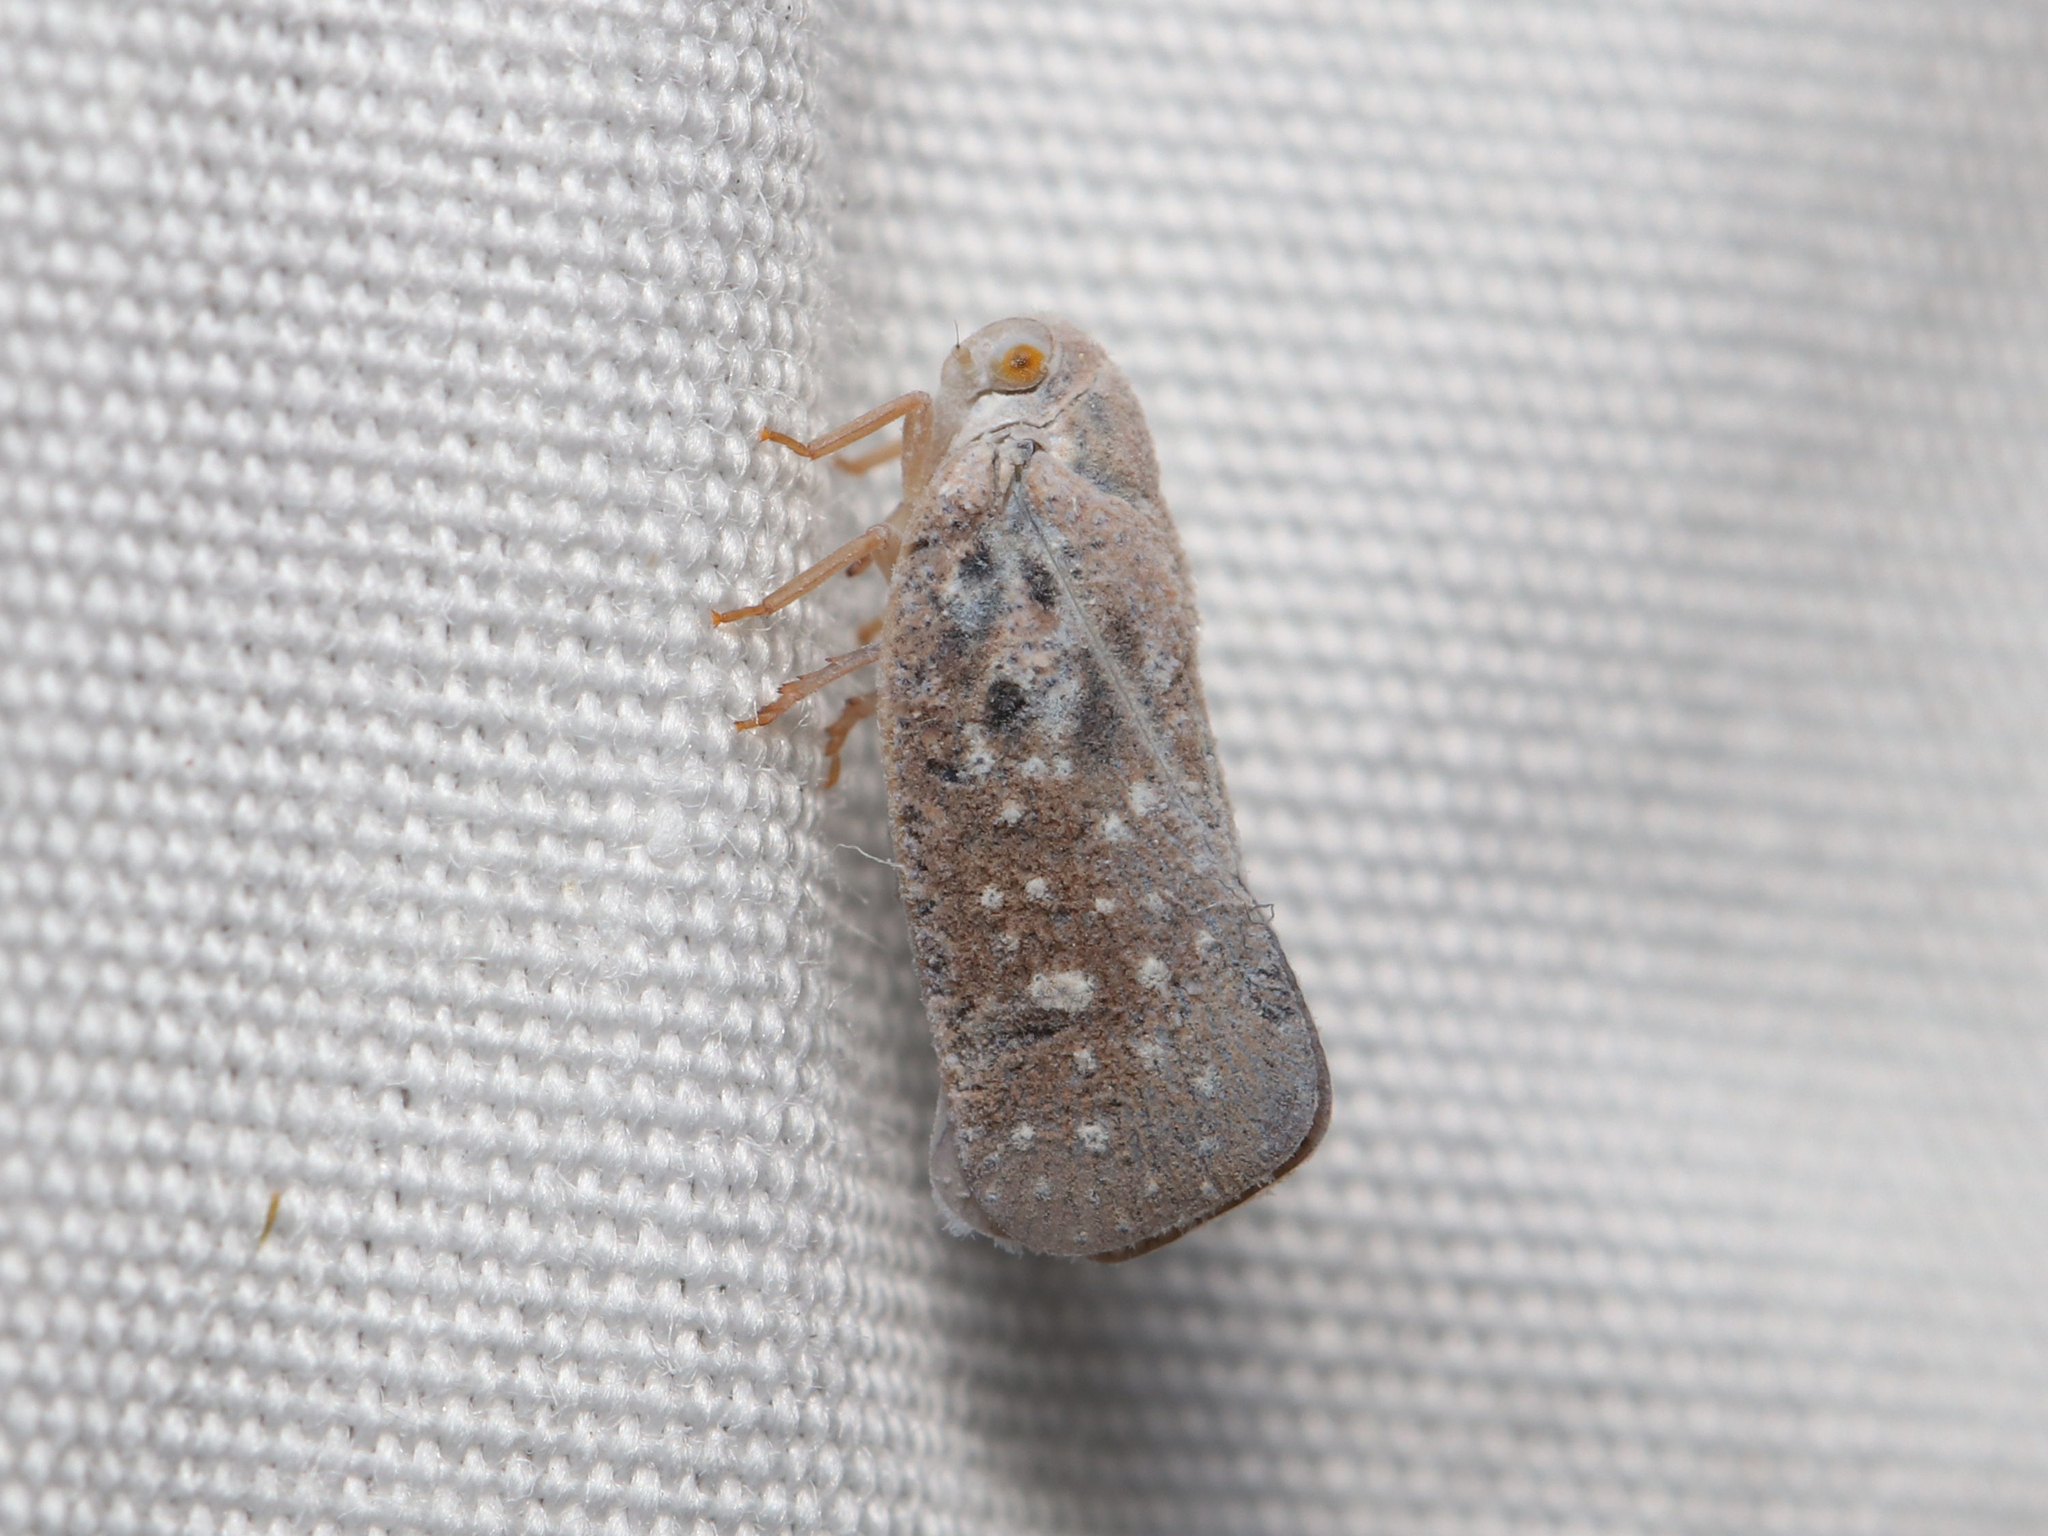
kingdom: Animalia
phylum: Arthropoda
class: Insecta
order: Hemiptera
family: Flatidae
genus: Metcalfa
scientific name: Metcalfa pruinosa
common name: Citrus flatid planthopper
